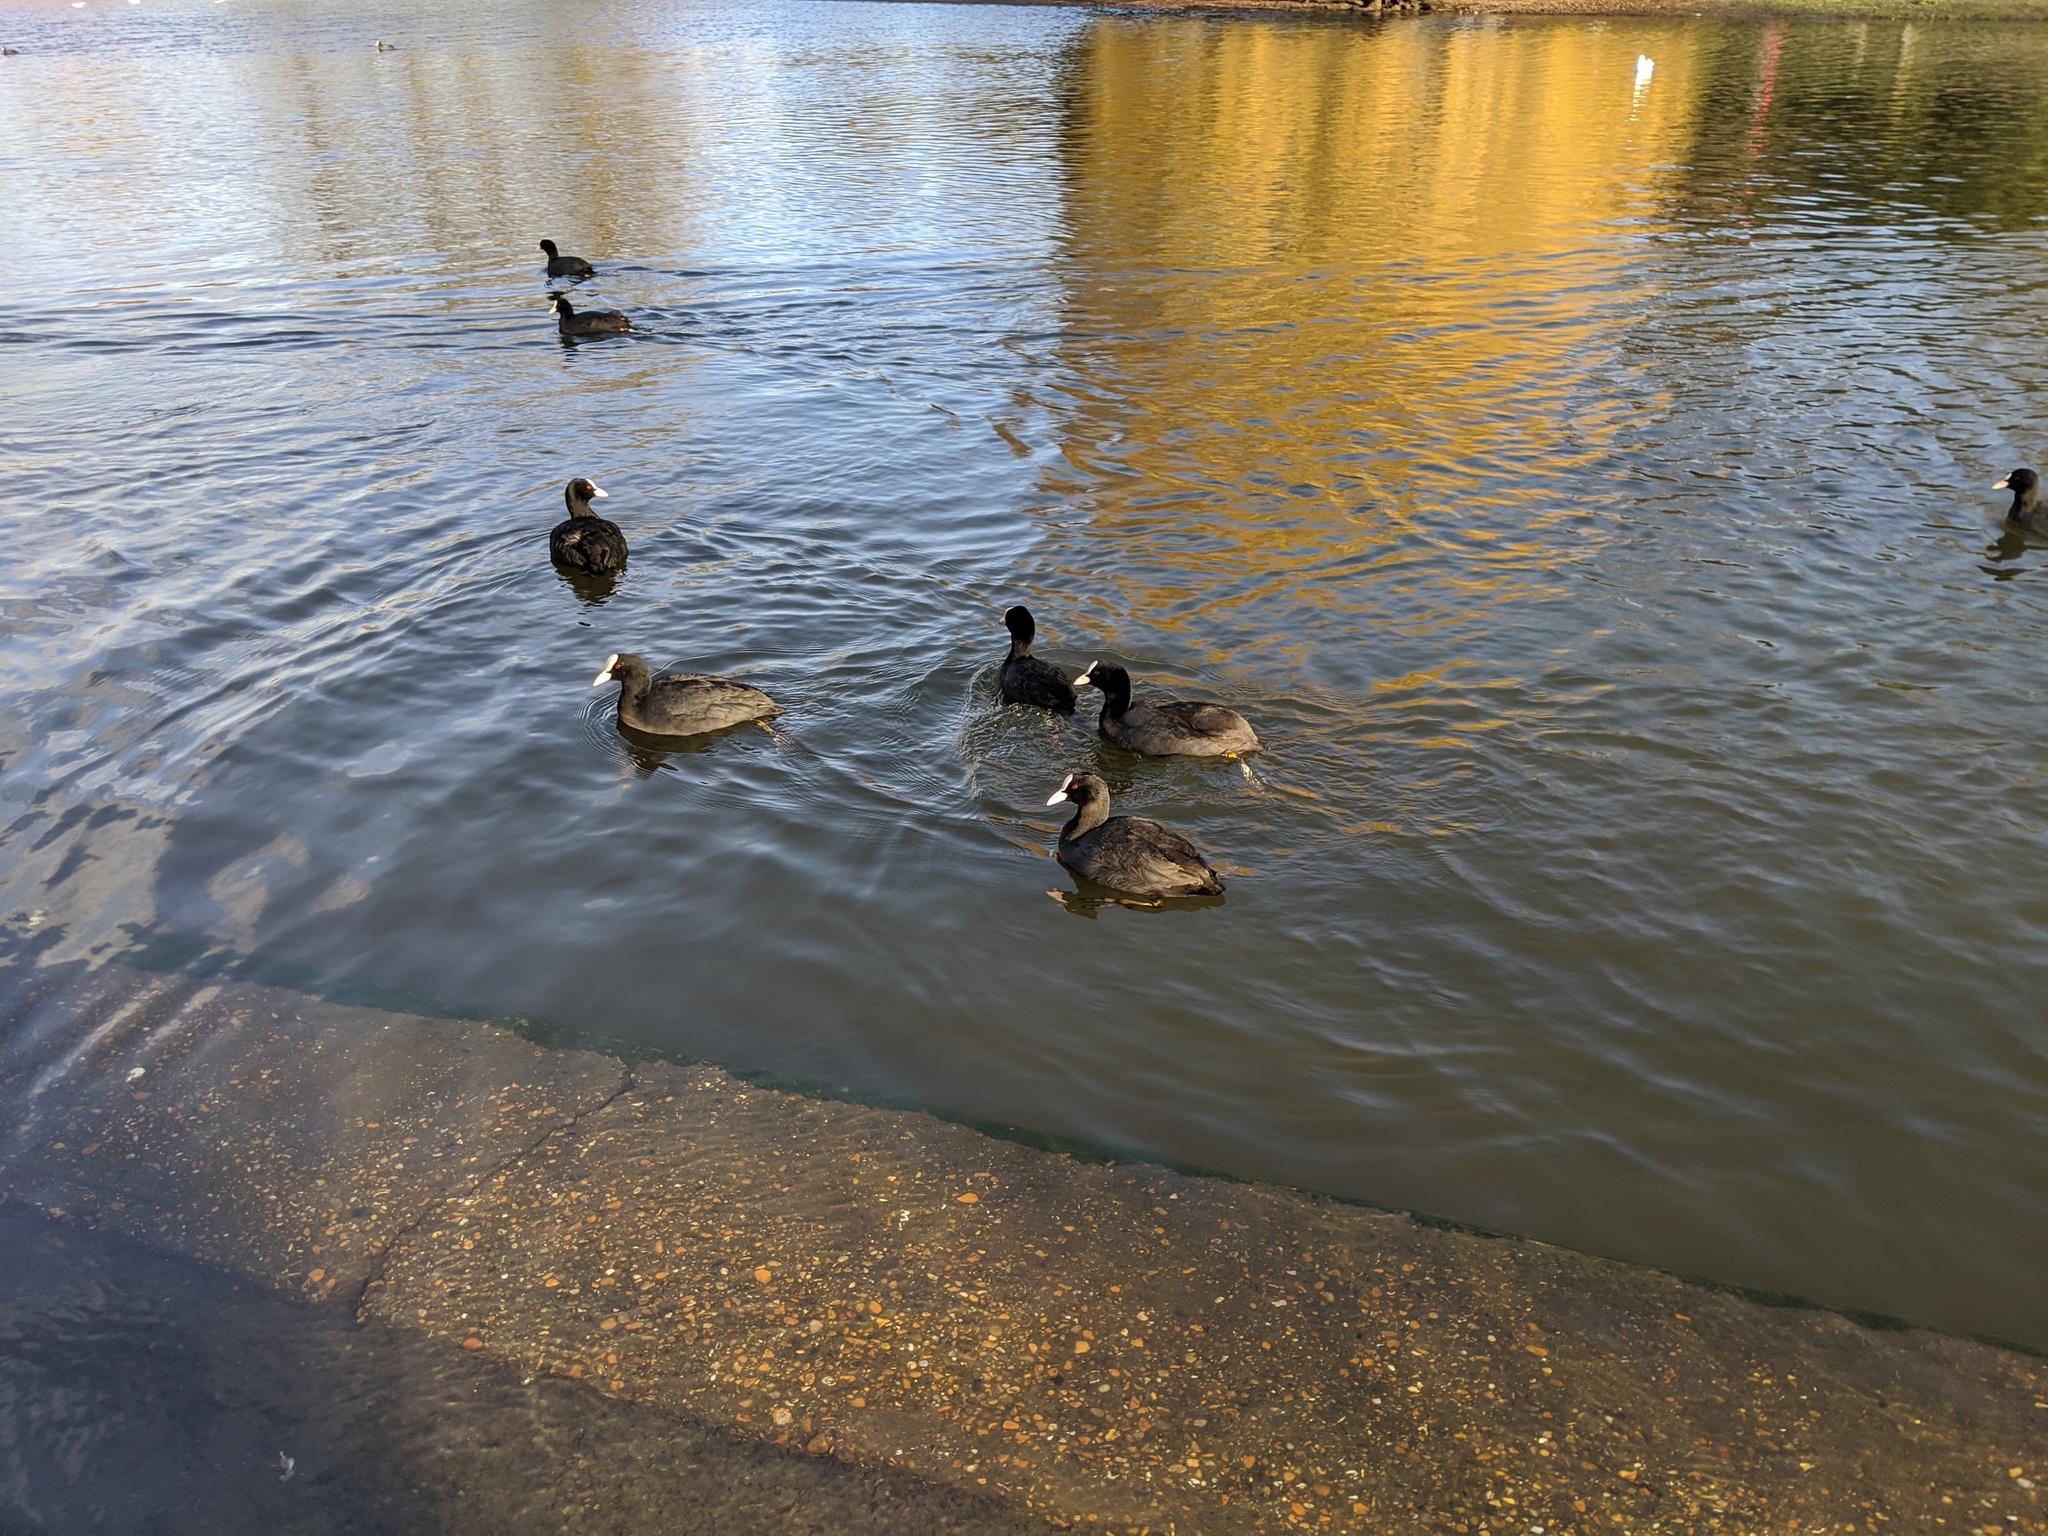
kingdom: Animalia
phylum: Chordata
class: Aves
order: Gruiformes
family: Rallidae
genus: Fulica
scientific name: Fulica atra
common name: Eurasian coot
